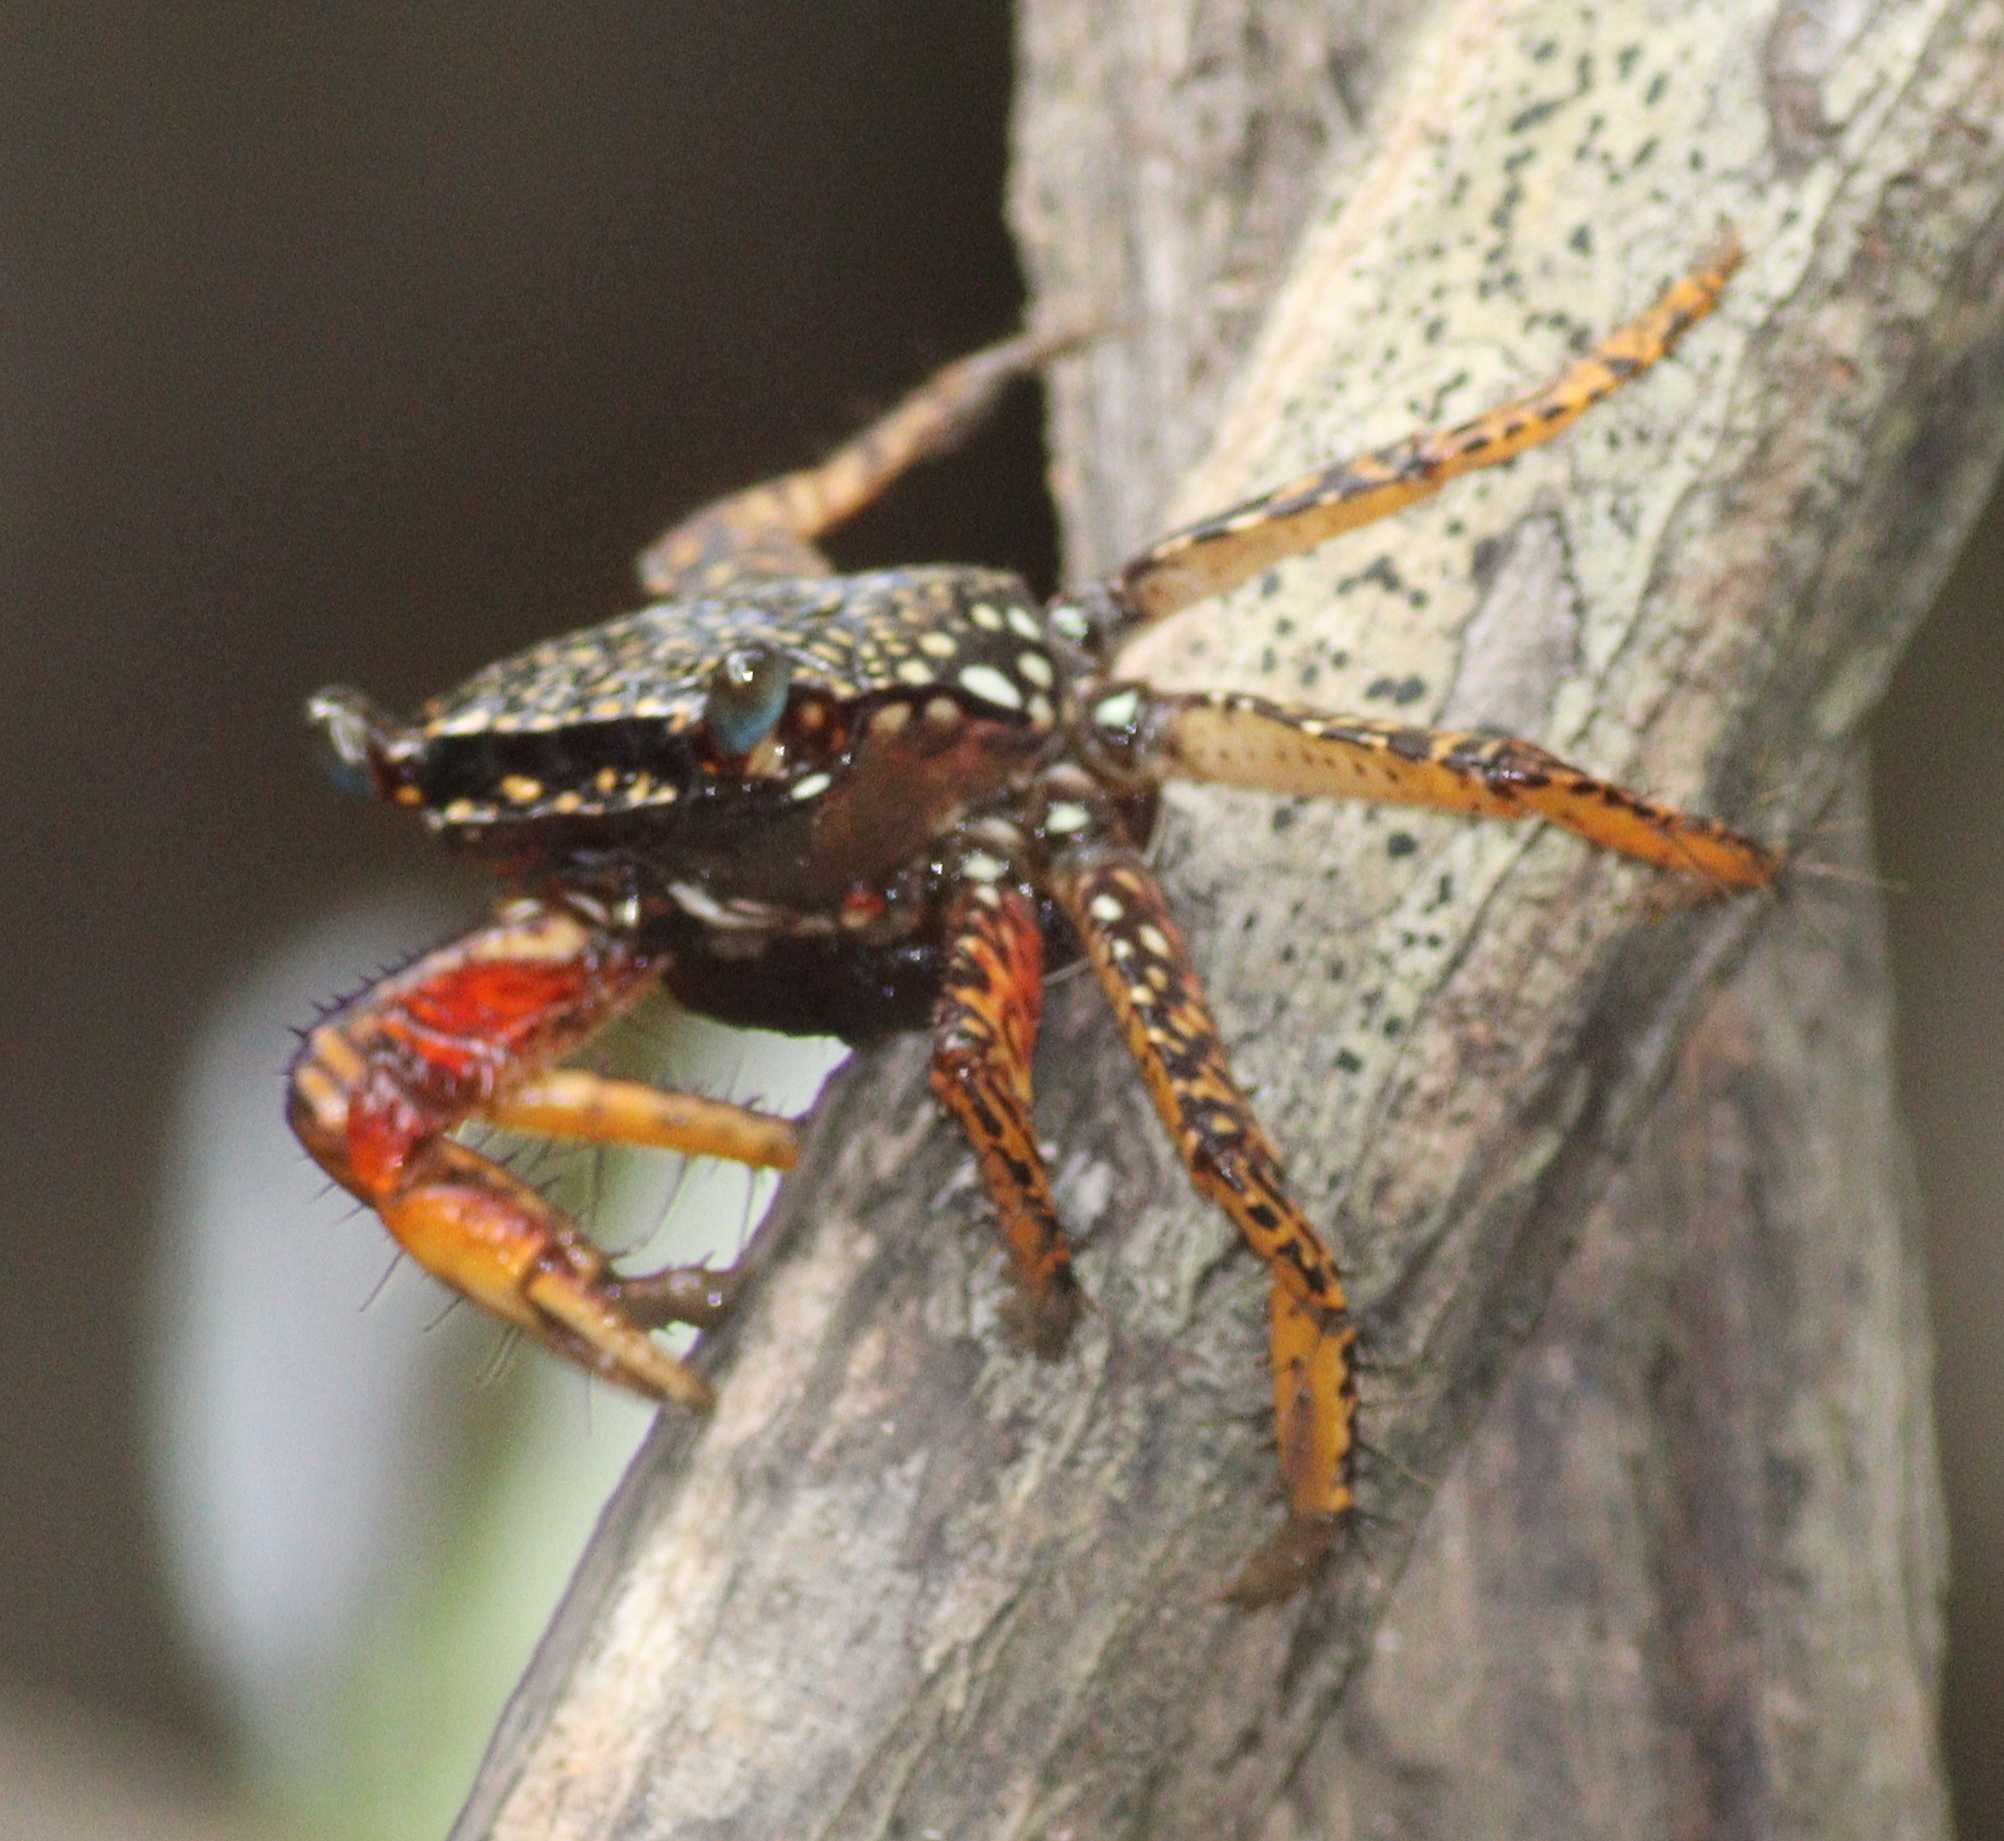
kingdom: Animalia
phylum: Arthropoda
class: Malacostraca
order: Decapoda
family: Grapsidae
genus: Goniopsis
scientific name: Goniopsis pulchra
